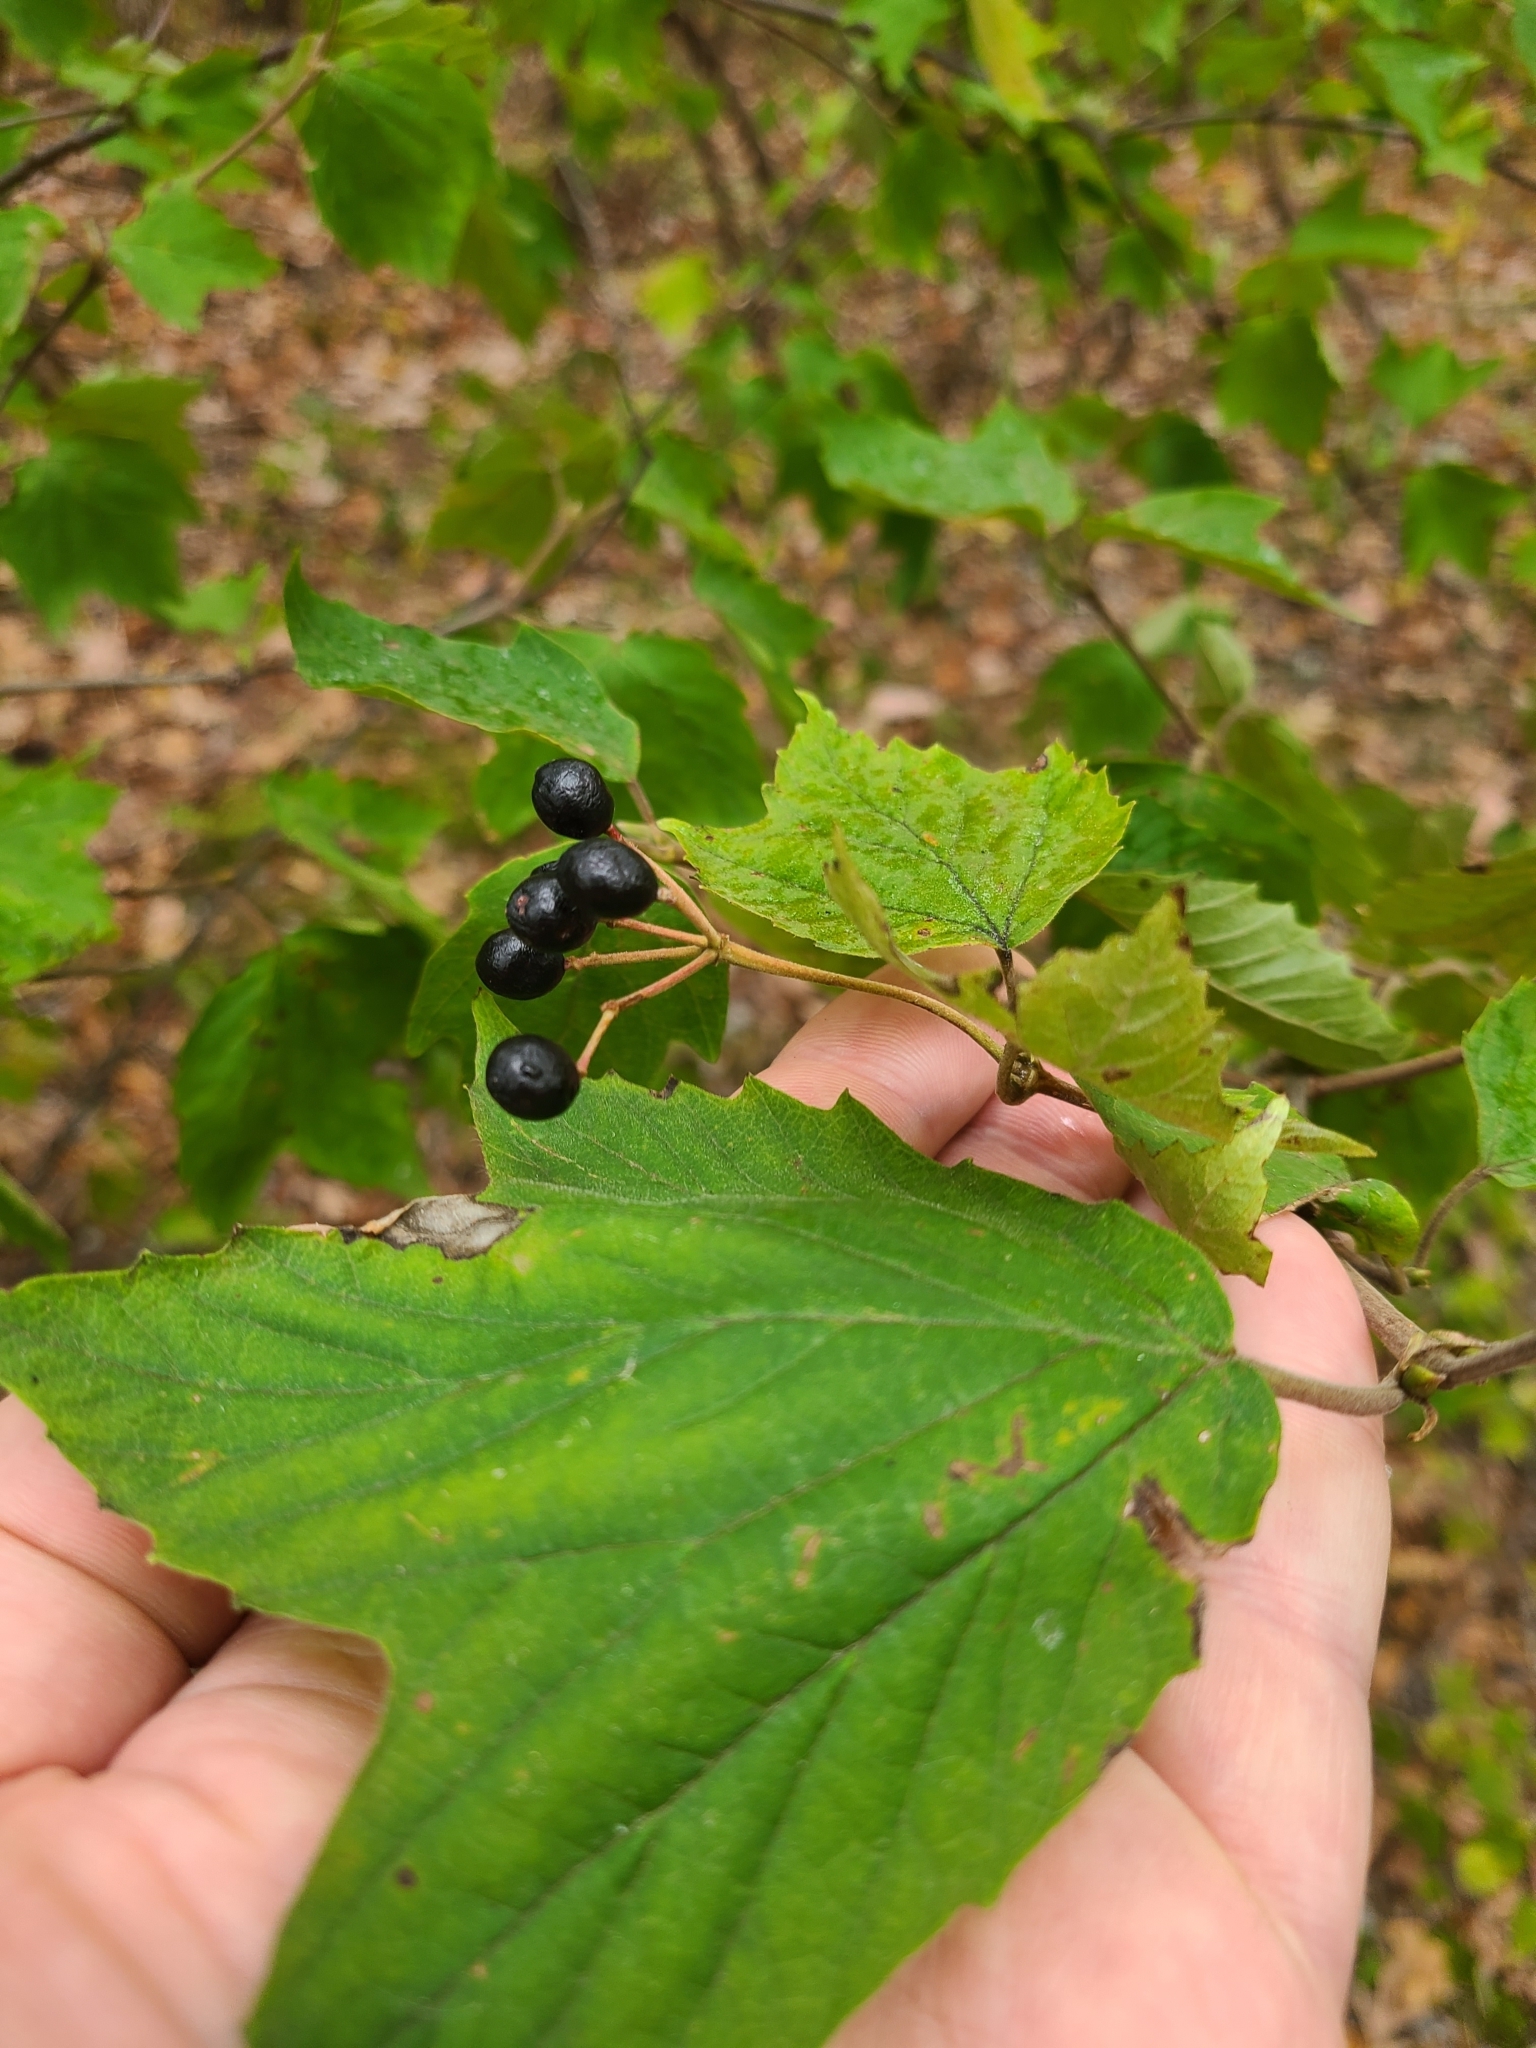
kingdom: Plantae
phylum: Tracheophyta
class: Magnoliopsida
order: Dipsacales
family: Viburnaceae
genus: Viburnum
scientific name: Viburnum acerifolium
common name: Dockmackie
